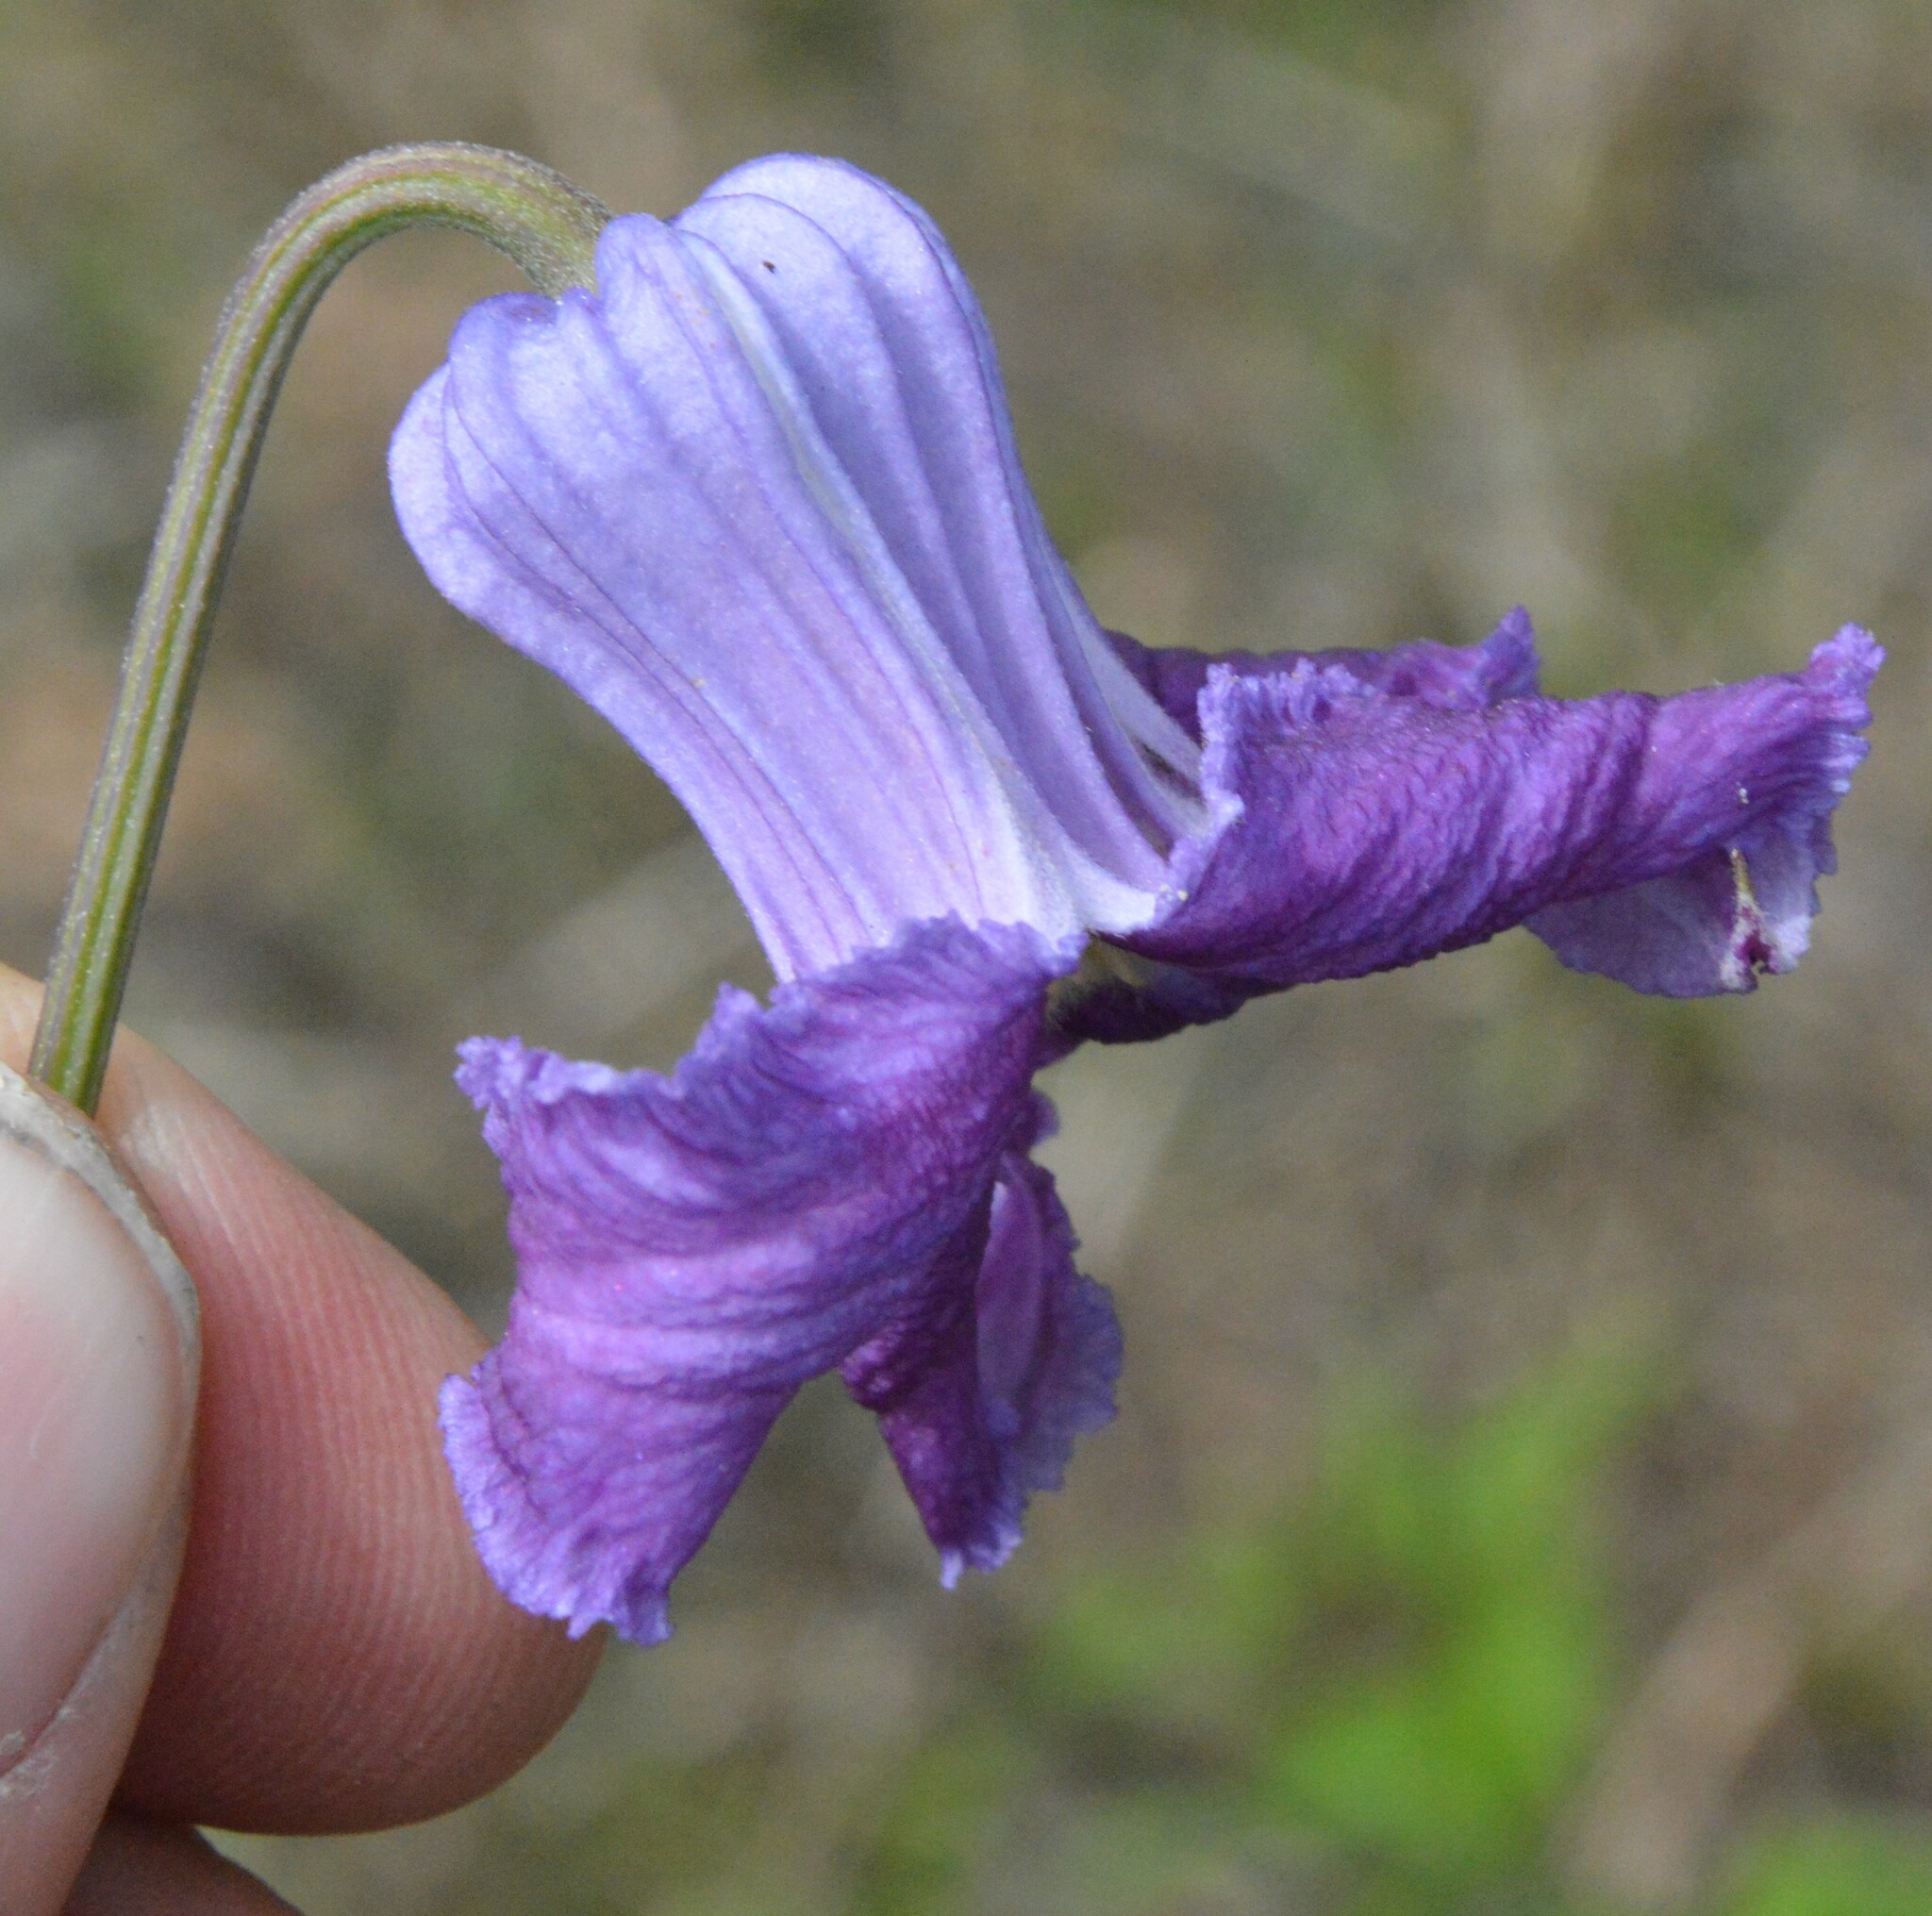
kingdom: Plantae
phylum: Tracheophyta
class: Magnoliopsida
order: Ranunculales
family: Ranunculaceae
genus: Clematis
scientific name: Clematis crispa
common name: Curly clematis
